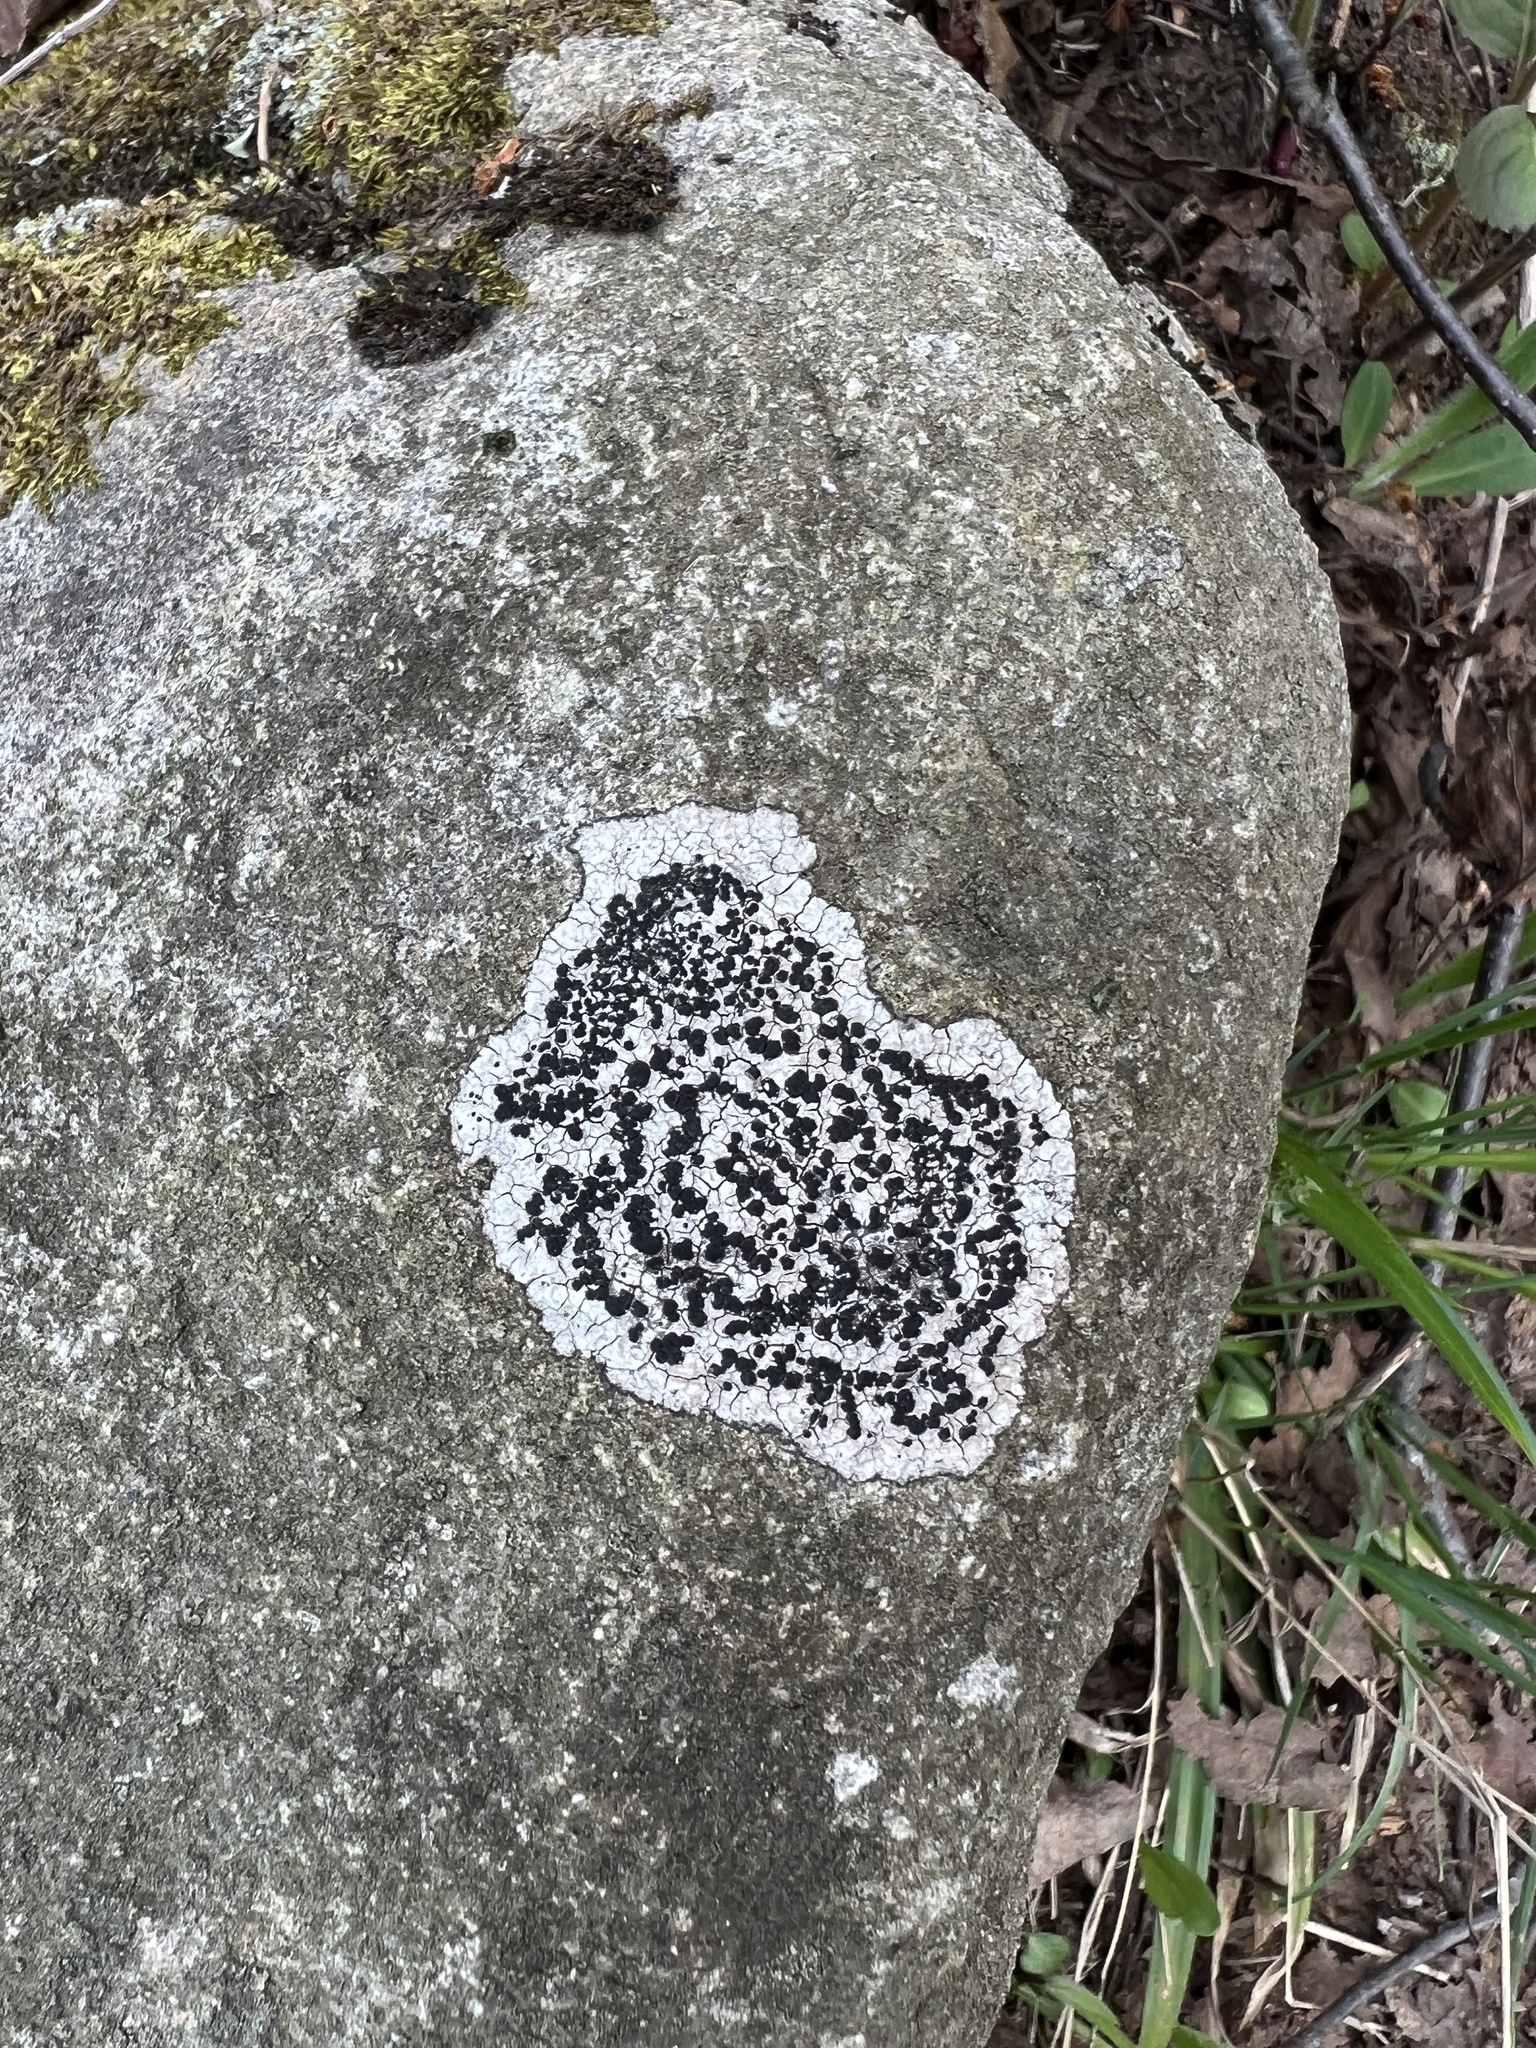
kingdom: Fungi
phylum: Ascomycota
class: Lecanoromycetes
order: Lecideales
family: Lecideaceae
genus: Porpidia
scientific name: Porpidia crustulata
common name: Concentric boulder lichen
